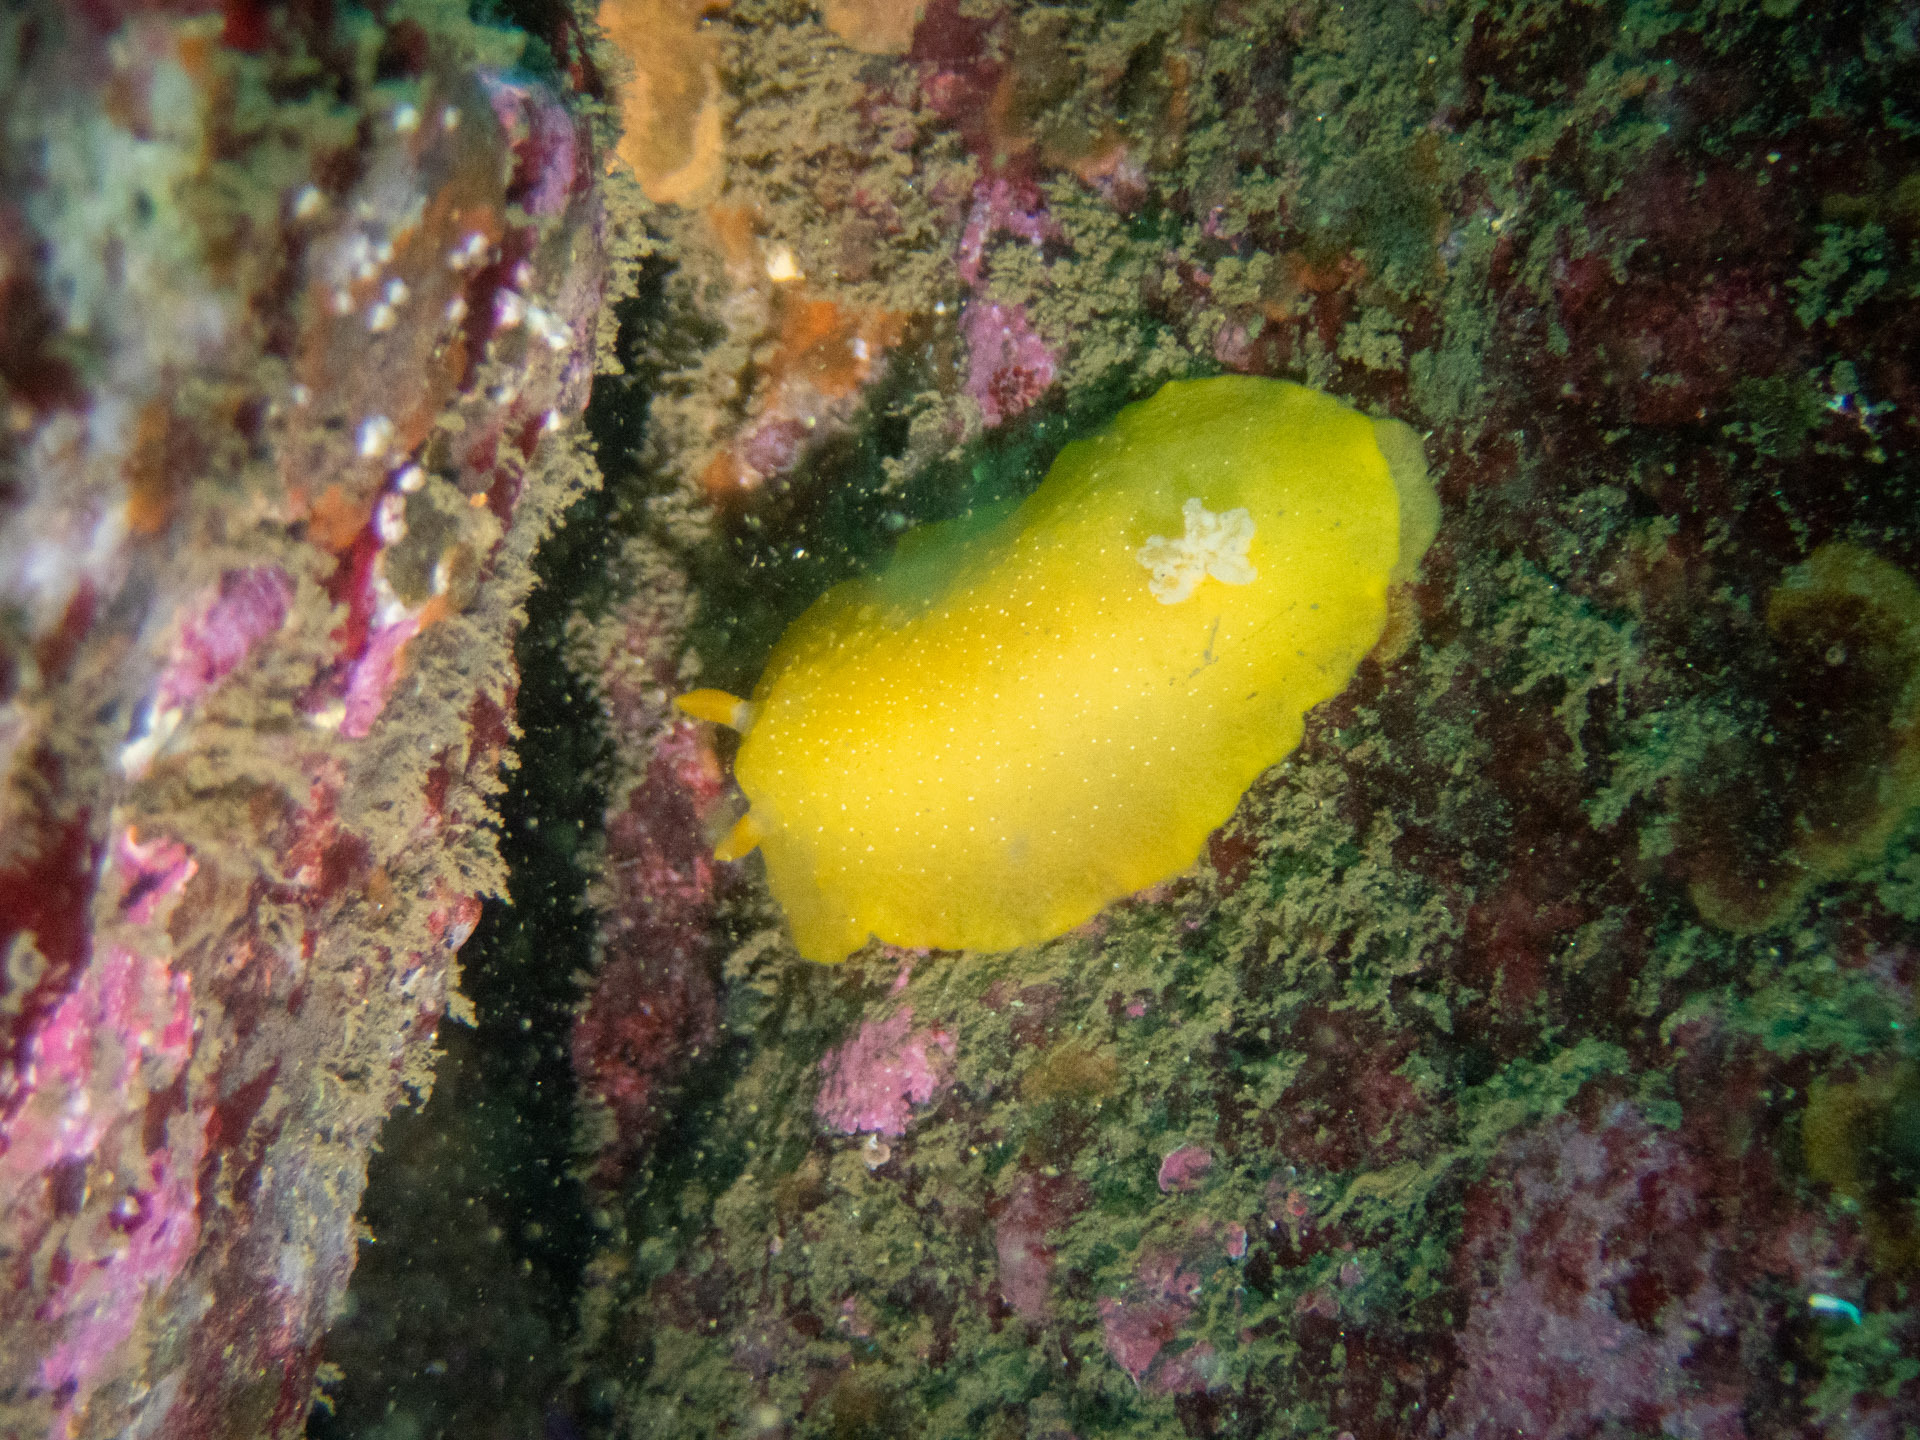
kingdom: Animalia
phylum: Mollusca
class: Gastropoda
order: Nudibranchia
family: Dendrodorididae
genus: Doriopsilla
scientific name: Doriopsilla fulva
